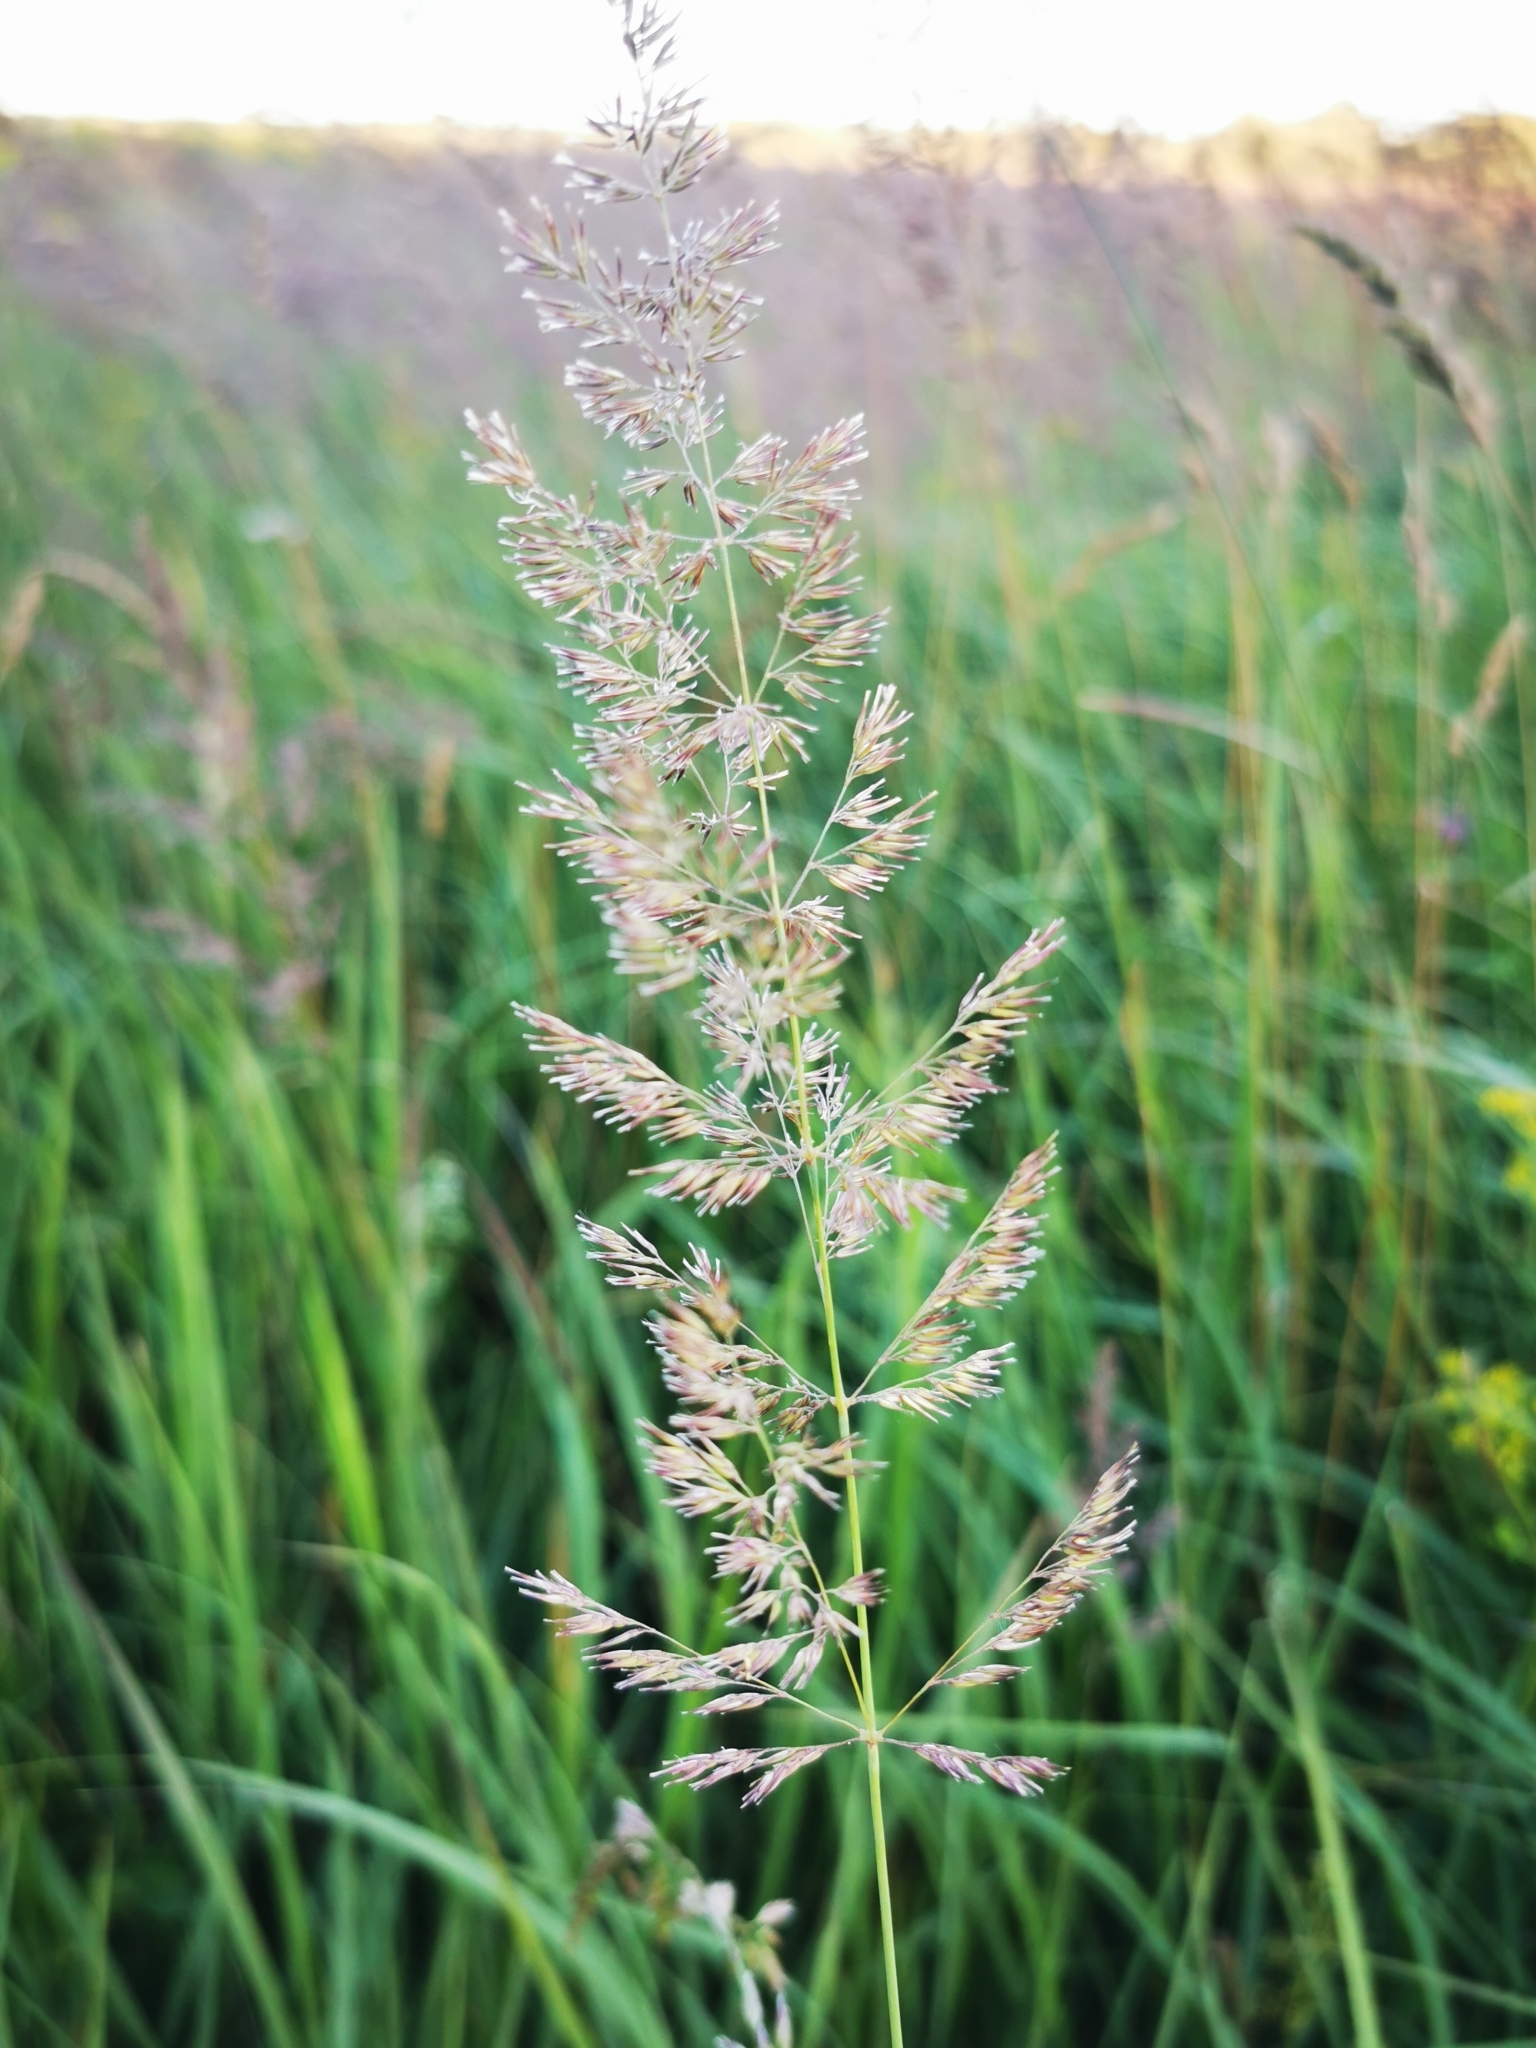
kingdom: Plantae
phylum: Tracheophyta
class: Liliopsida
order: Poales
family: Poaceae
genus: Calamagrostis
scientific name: Calamagrostis epigejos
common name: Wood small-reed
